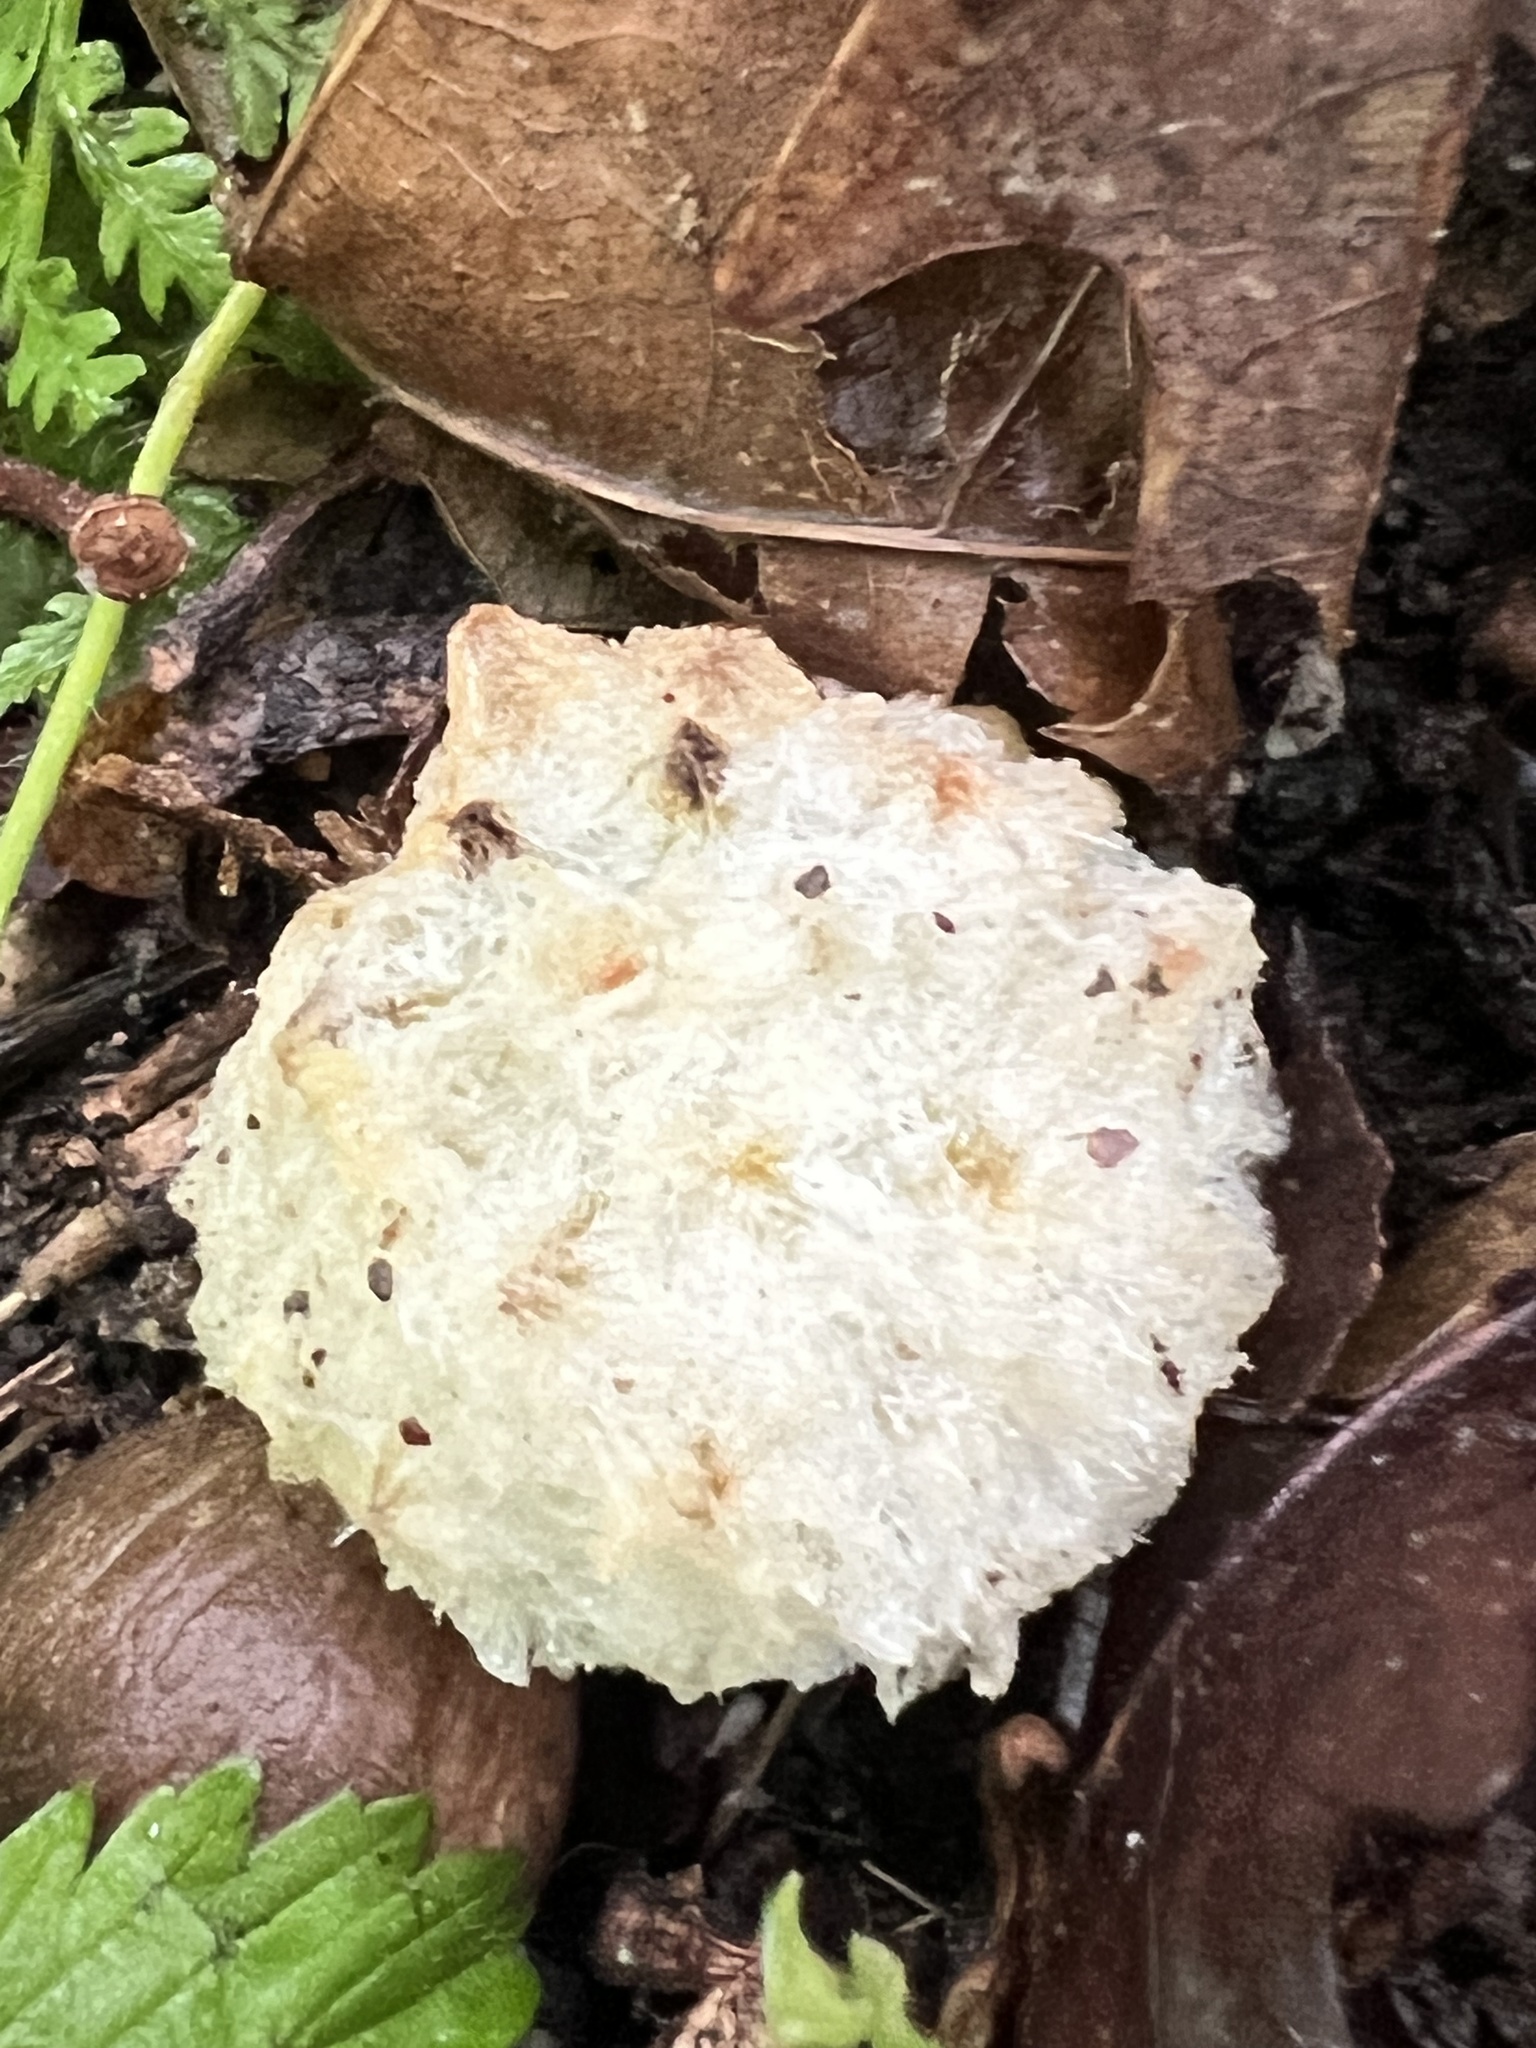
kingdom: Animalia
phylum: Arthropoda
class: Insecta
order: Hymenoptera
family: Cynipidae
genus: Callirhytis
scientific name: Callirhytis
